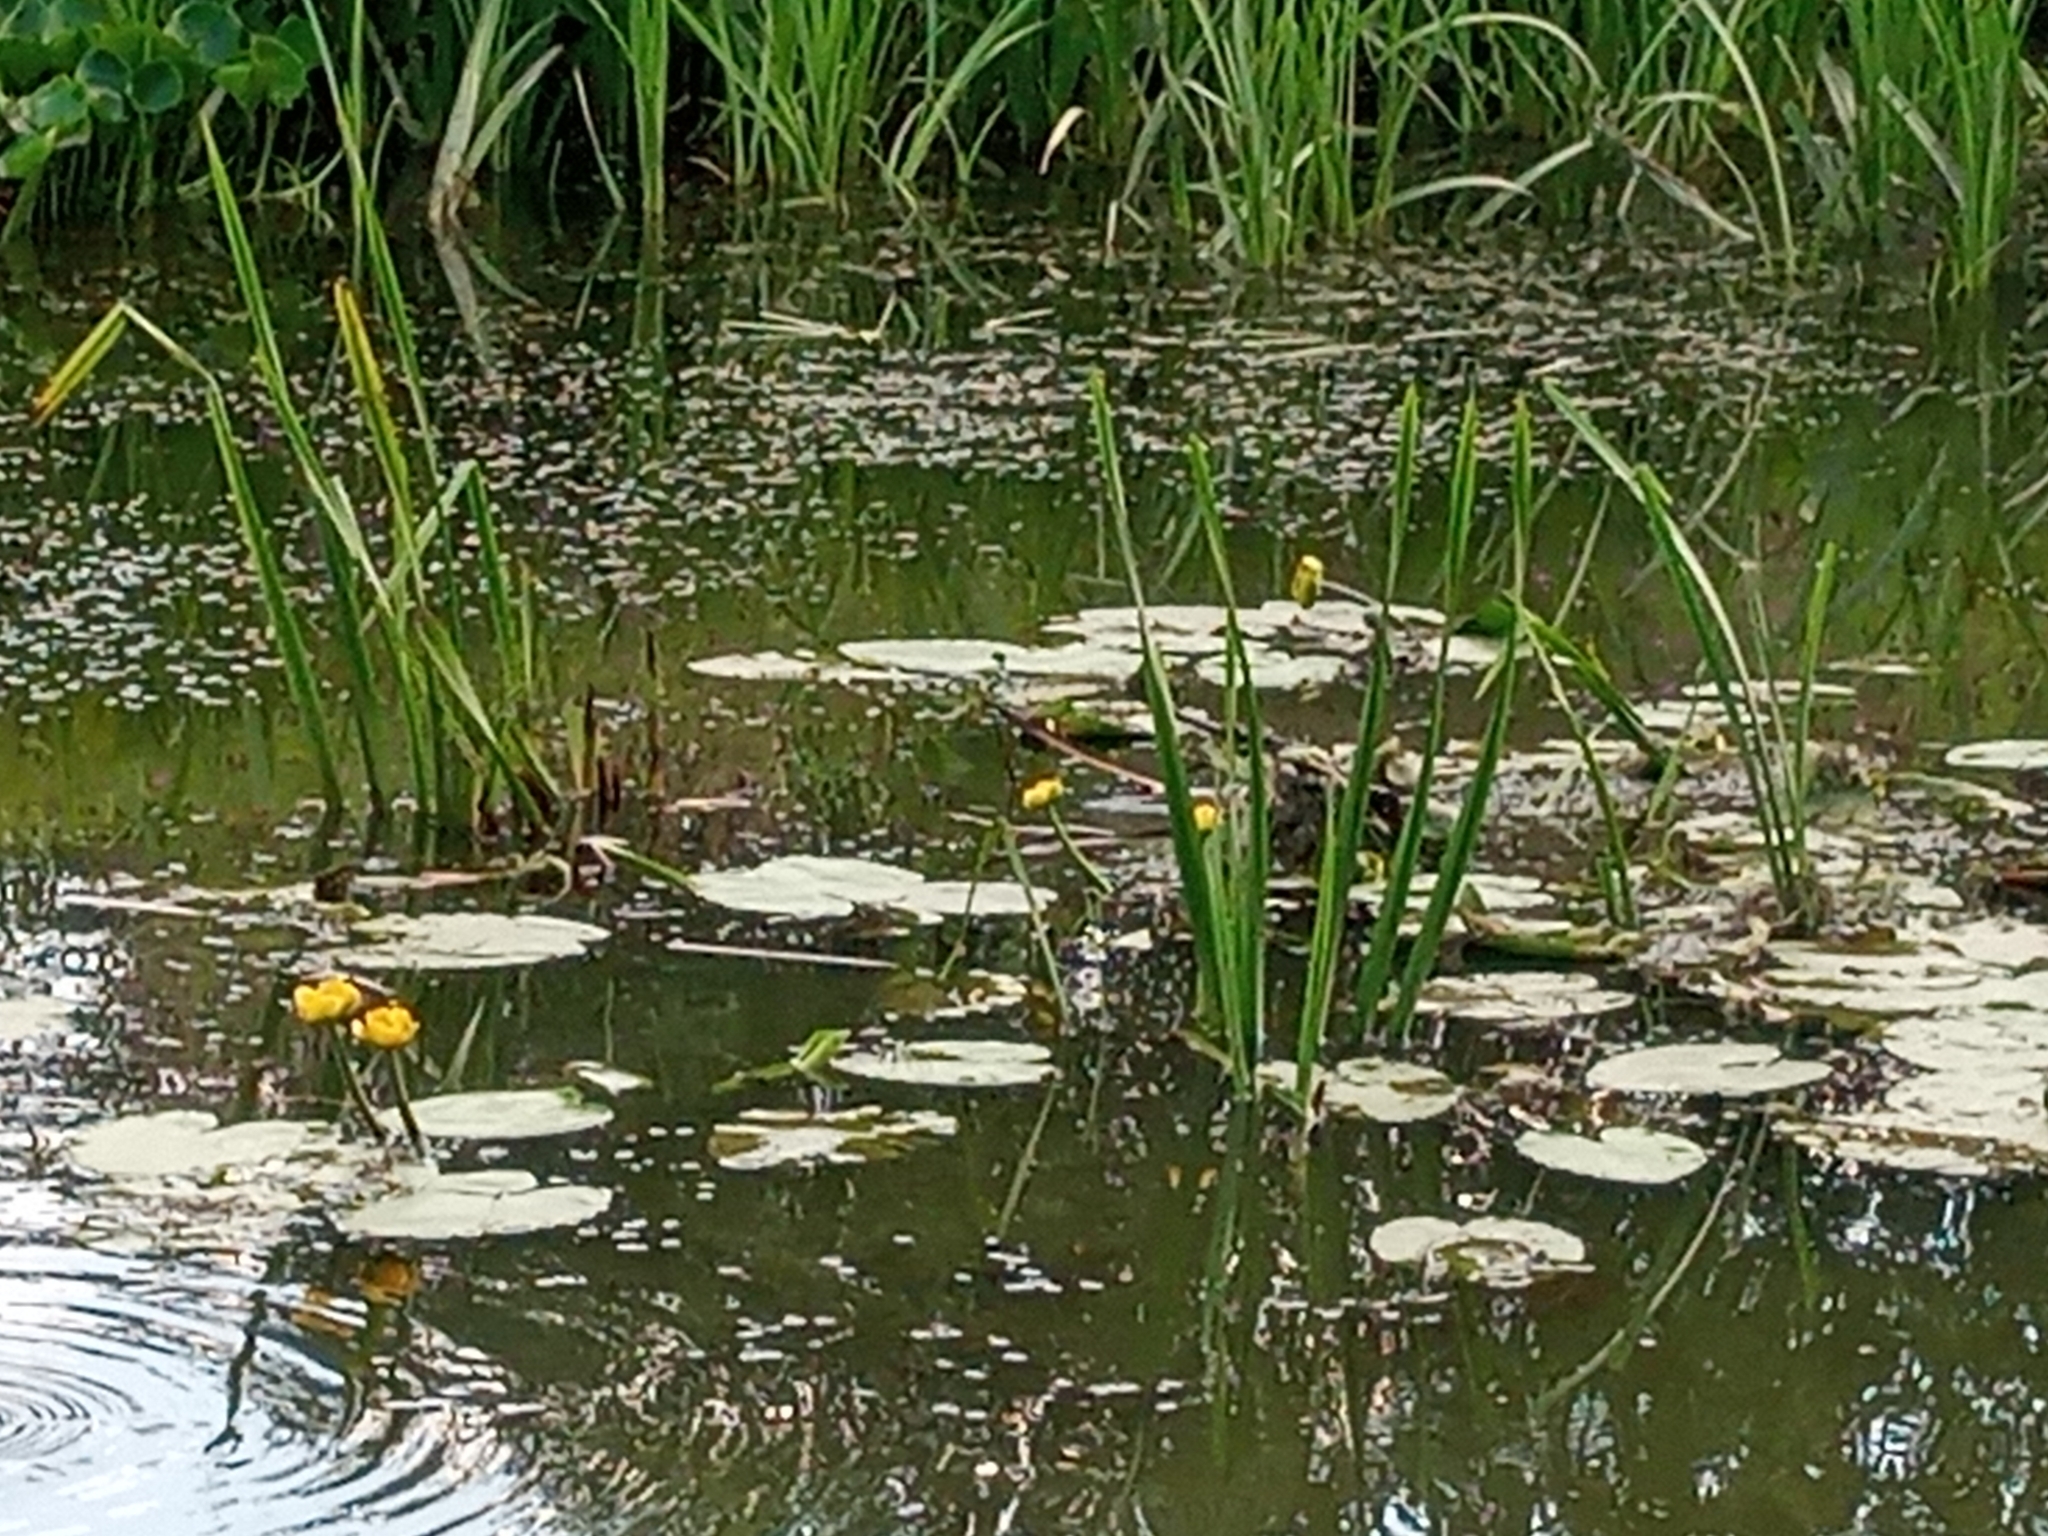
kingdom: Plantae
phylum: Tracheophyta
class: Magnoliopsida
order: Nymphaeales
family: Nymphaeaceae
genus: Nuphar
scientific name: Nuphar lutea
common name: Yellow water-lily
